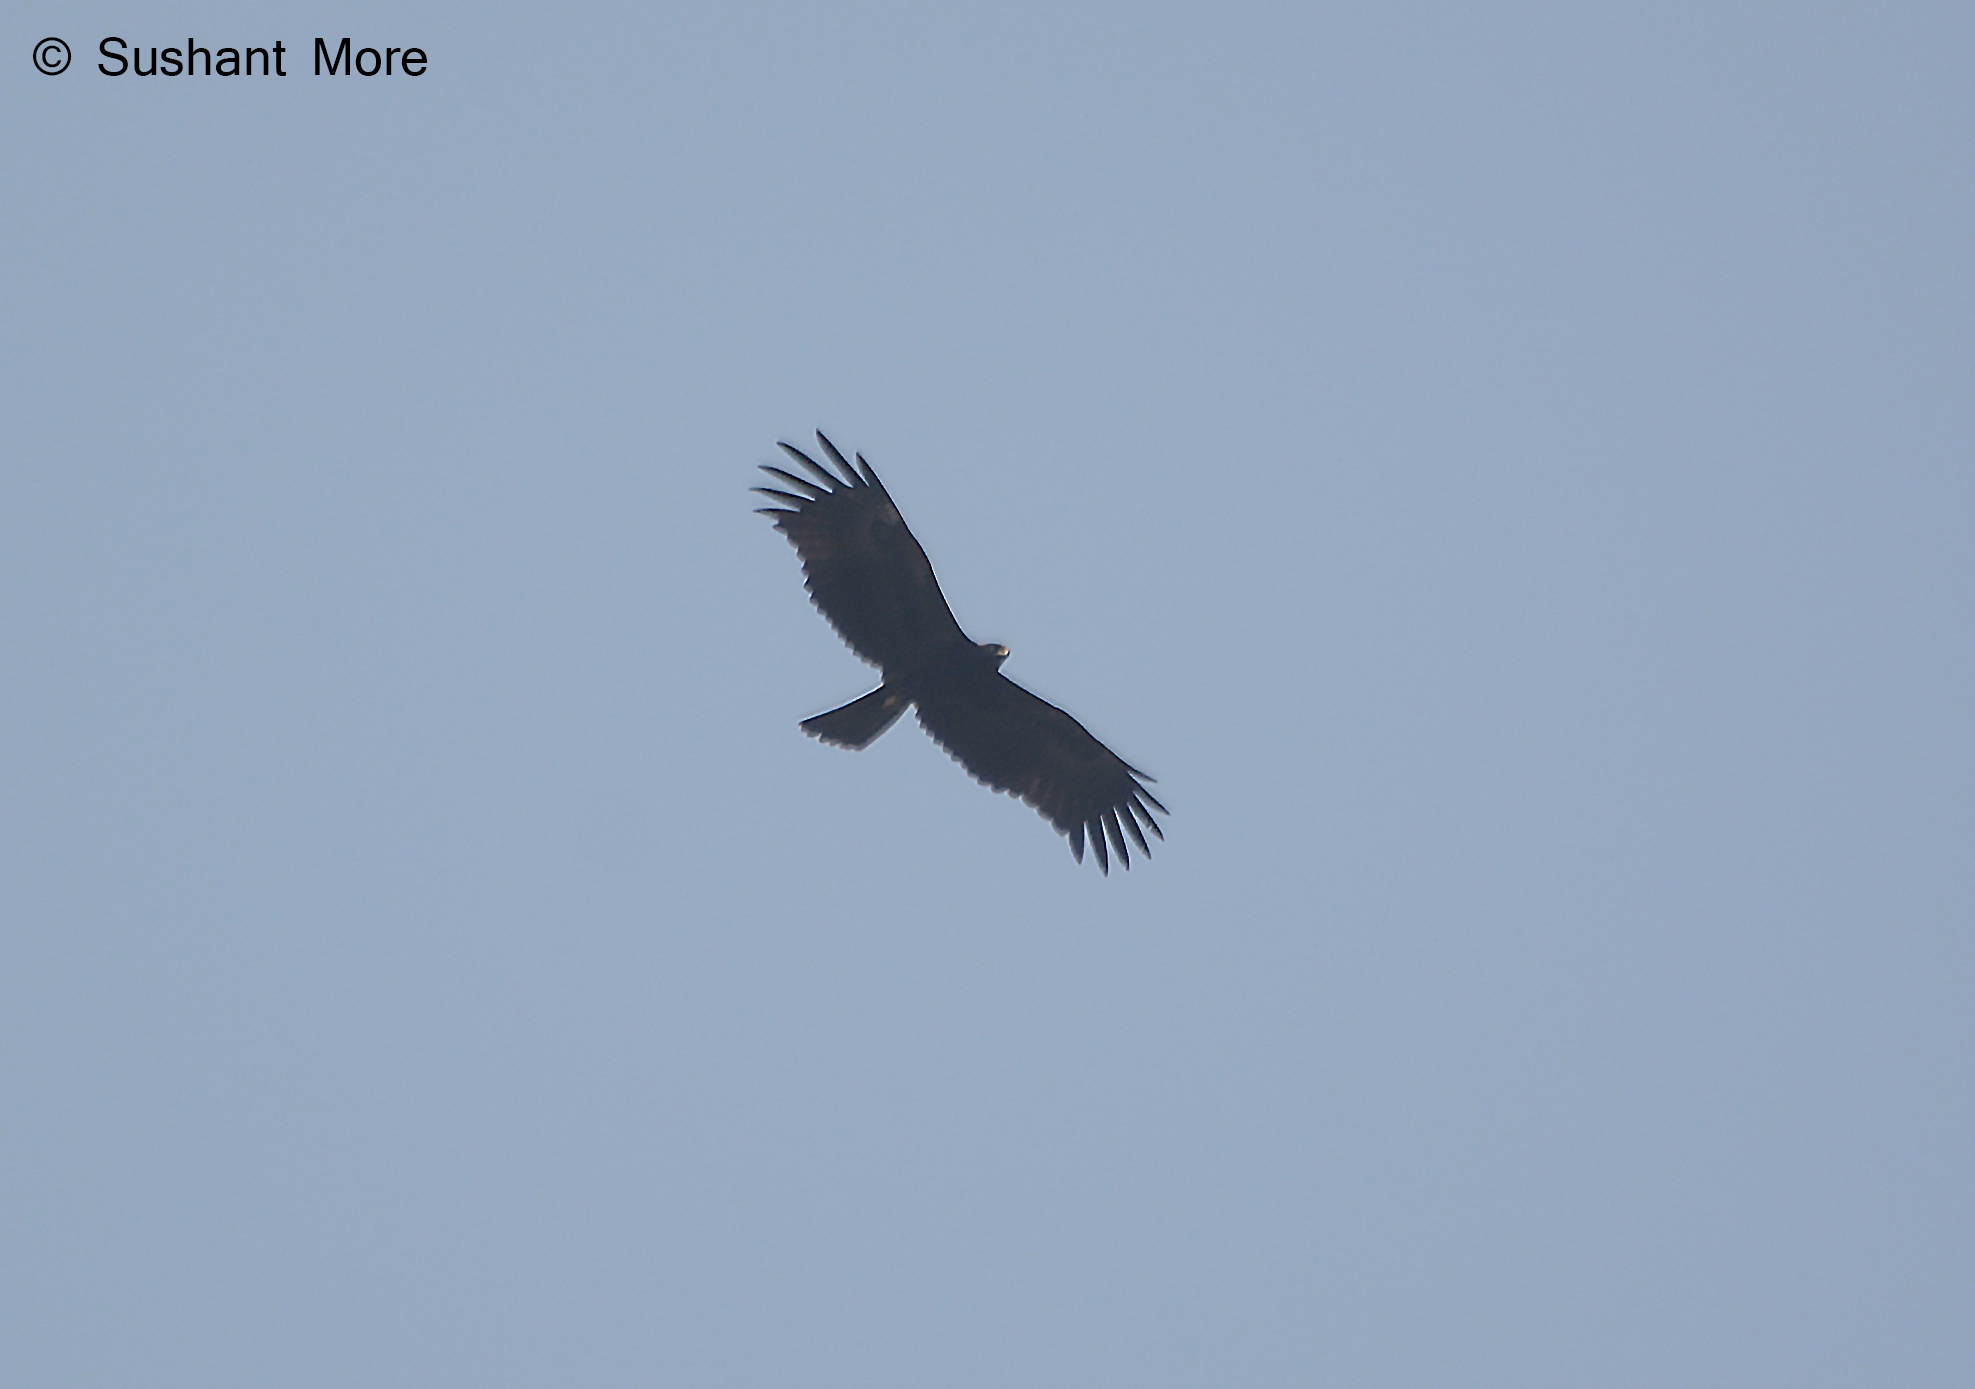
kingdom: Animalia
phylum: Chordata
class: Aves
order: Accipitriformes
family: Accipitridae
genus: Ictinaetus
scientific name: Ictinaetus malayensis
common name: Black eagle
